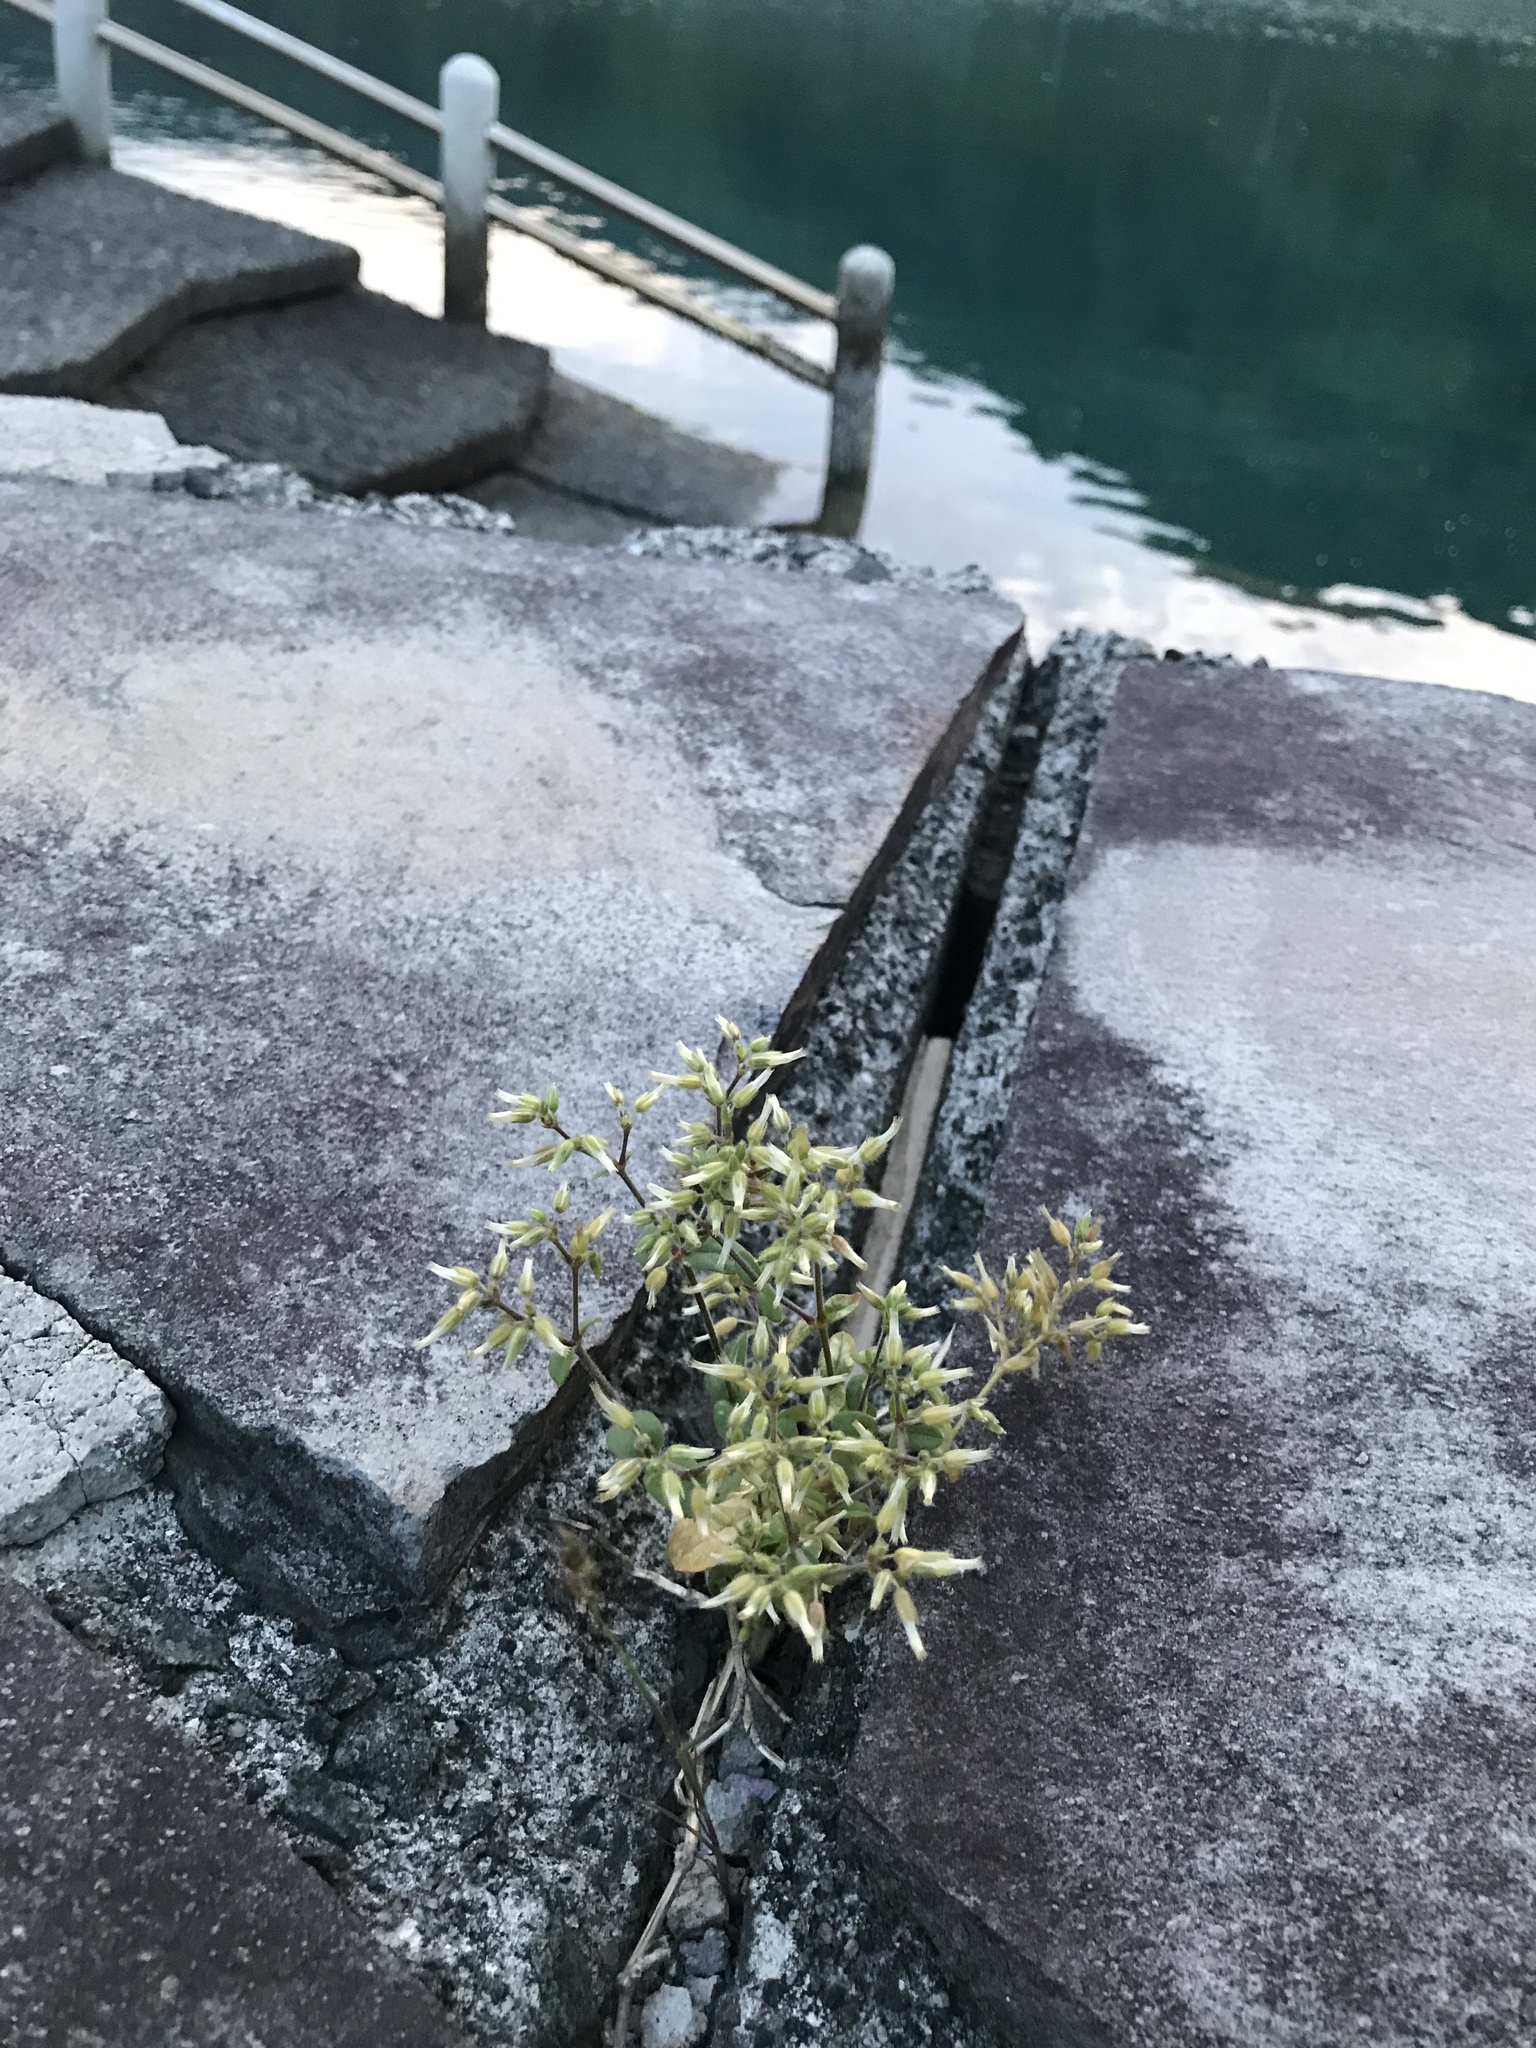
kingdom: Plantae
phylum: Tracheophyta
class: Magnoliopsida
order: Caryophyllales
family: Caryophyllaceae
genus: Cerastium
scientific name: Cerastium glomeratum
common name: Sticky chickweed
